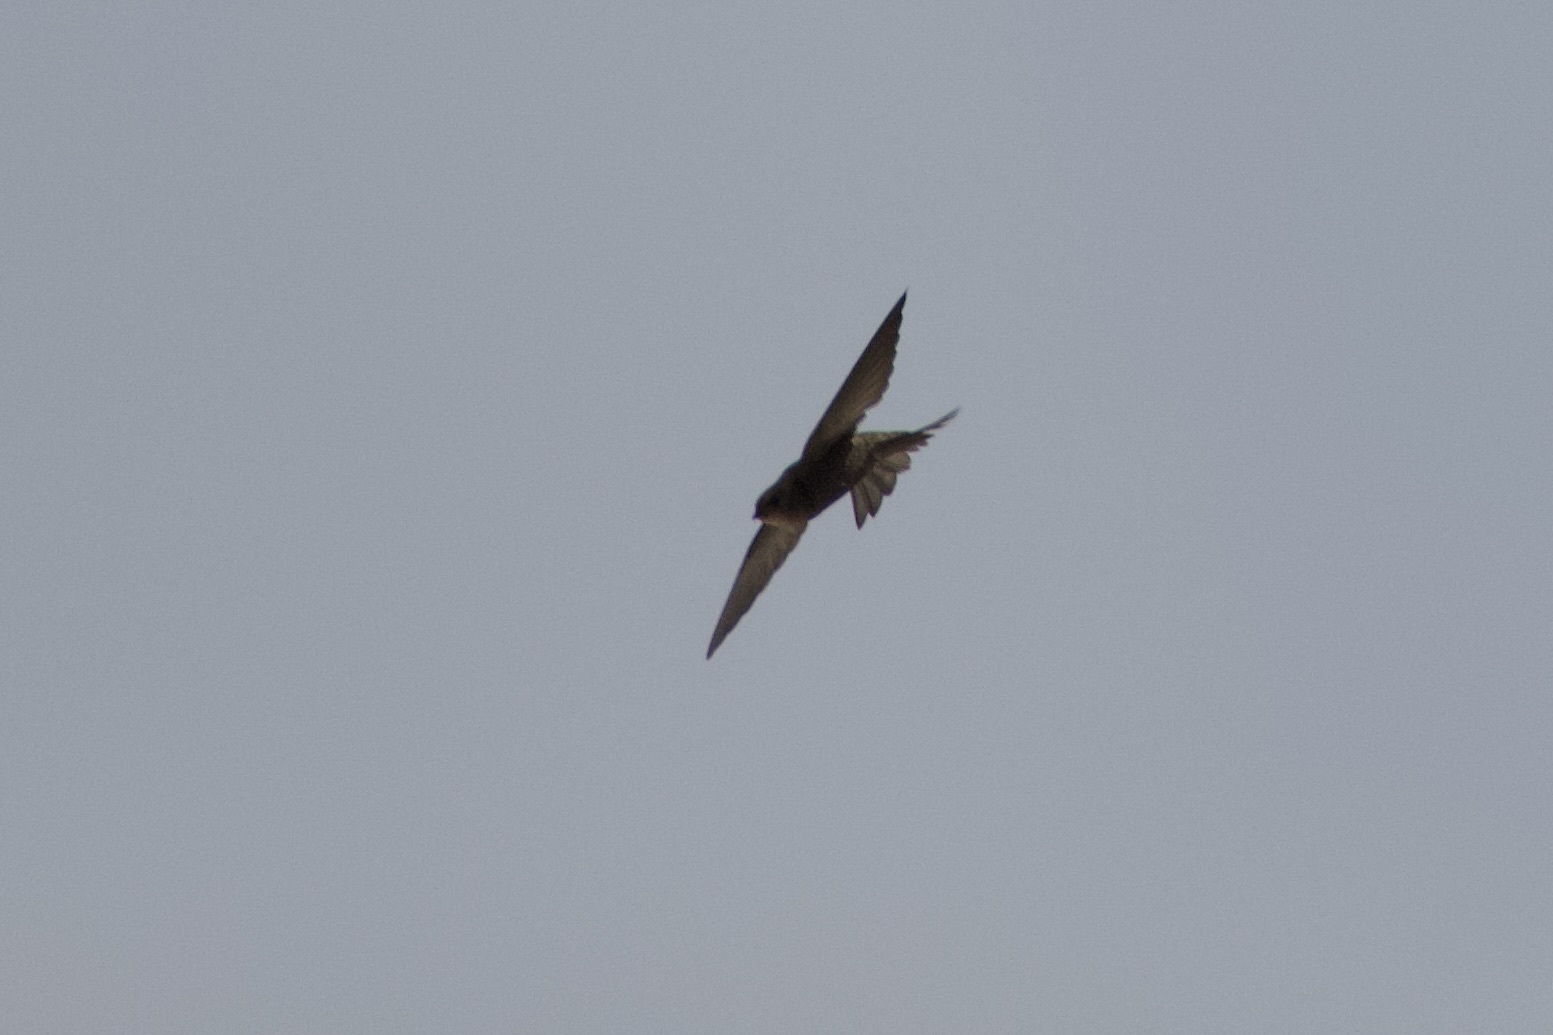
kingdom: Animalia
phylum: Chordata
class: Aves
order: Apodiformes
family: Apodidae
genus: Apus
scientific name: Apus unicolor
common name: Plain swift
